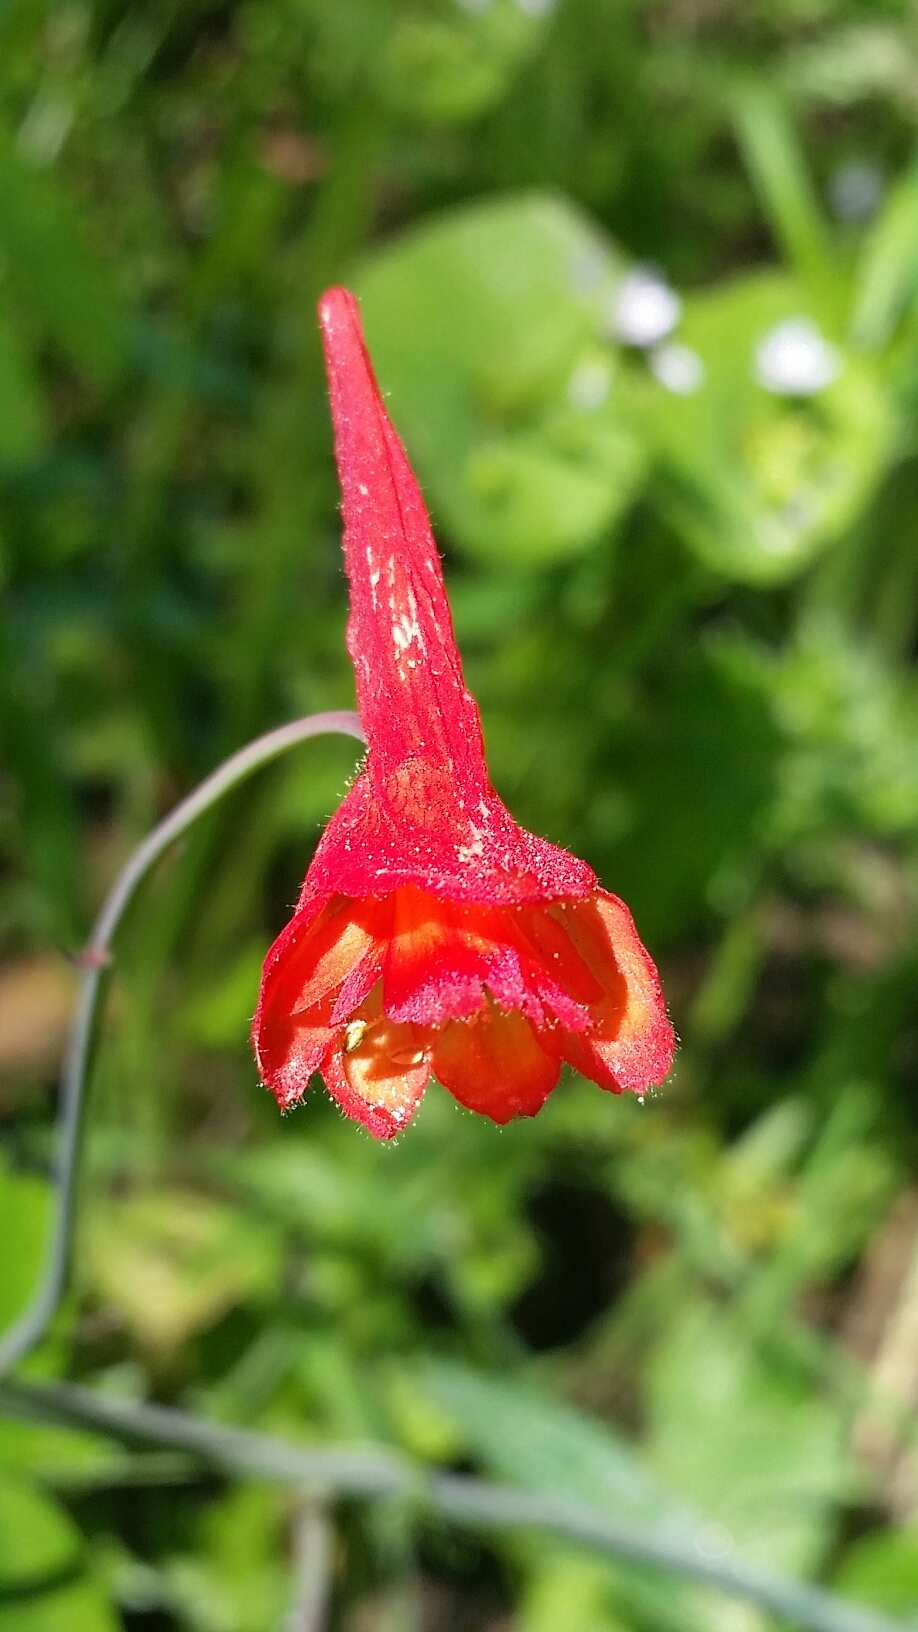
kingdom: Plantae
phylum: Tracheophyta
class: Magnoliopsida
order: Ranunculales
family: Ranunculaceae
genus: Delphinium
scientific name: Delphinium nudicaule
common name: Red larkspur
